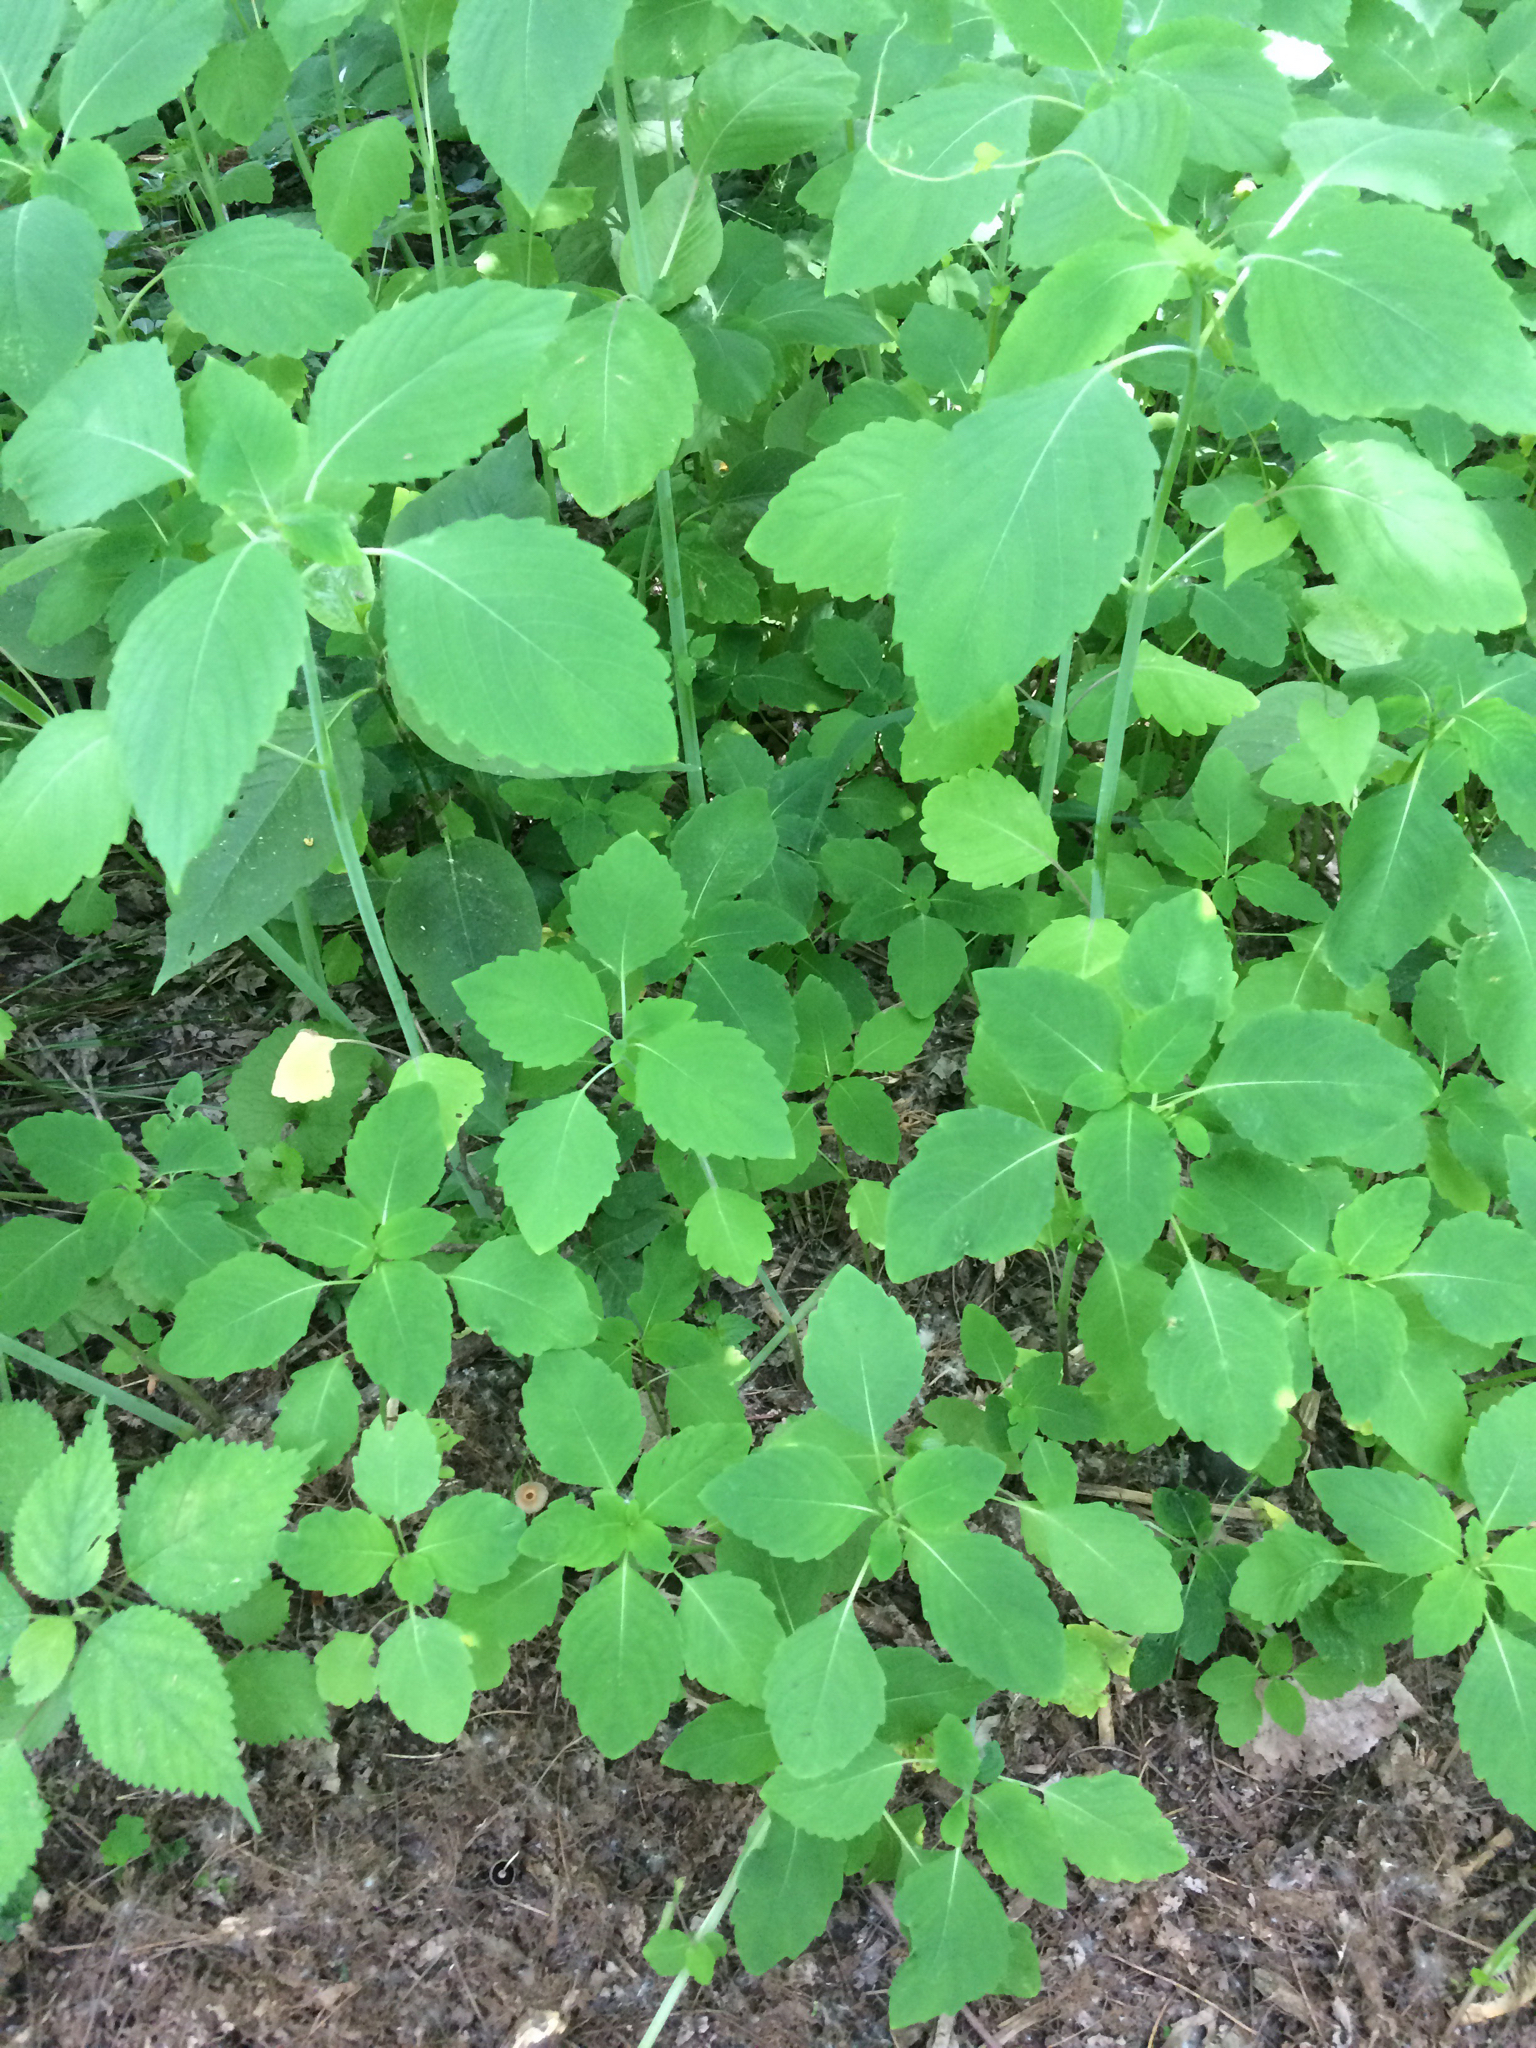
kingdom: Plantae
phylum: Tracheophyta
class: Magnoliopsida
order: Ericales
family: Balsaminaceae
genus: Impatiens
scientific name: Impatiens capensis
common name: Orange balsam
